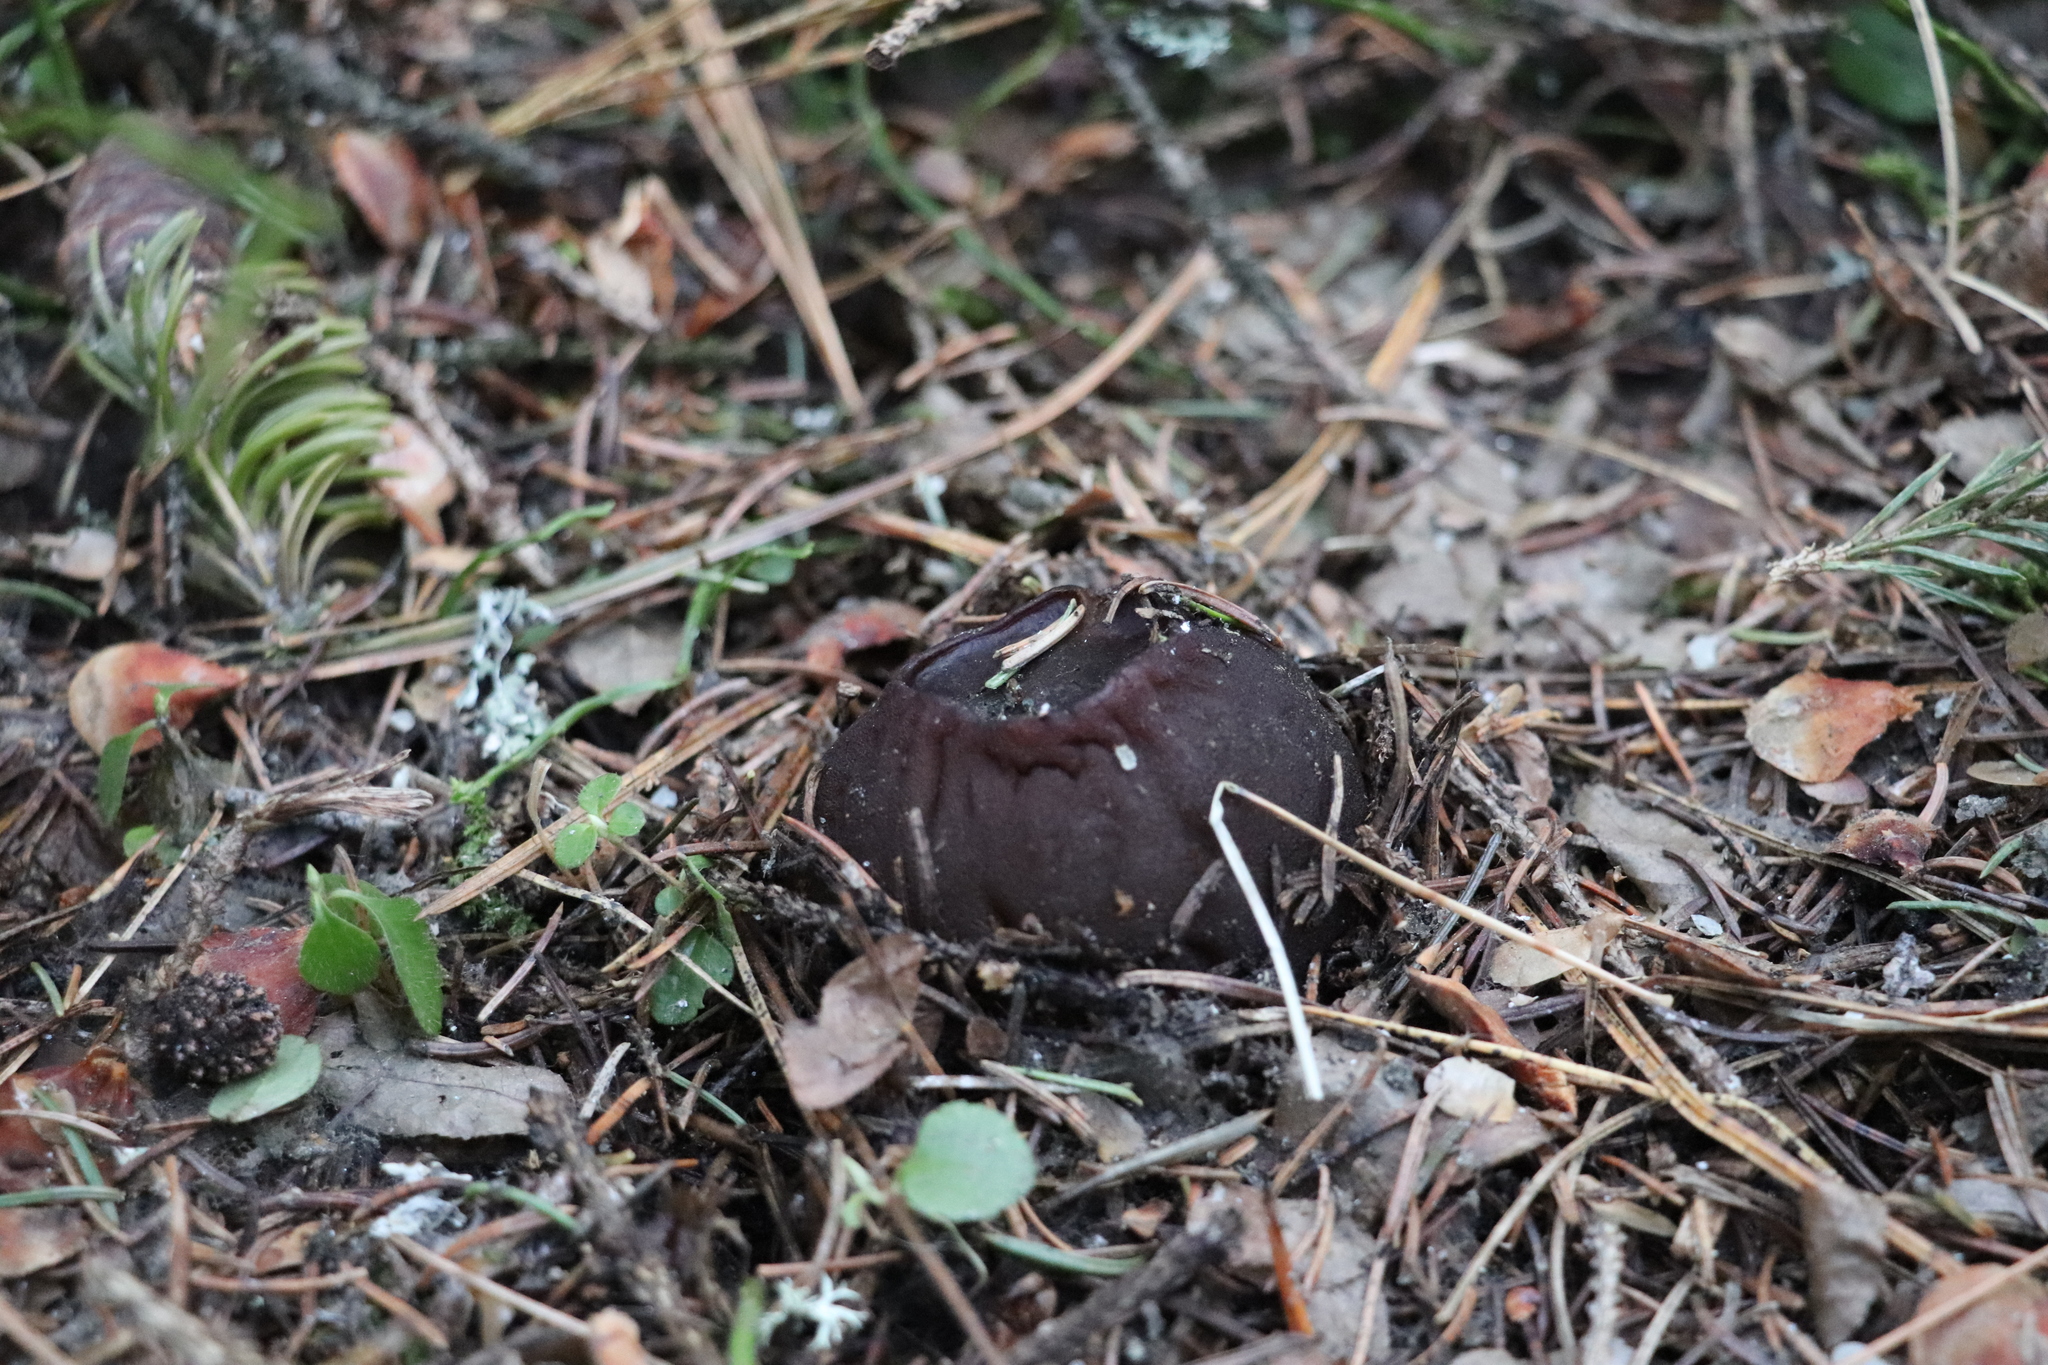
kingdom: Fungi
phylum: Ascomycota
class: Pezizomycetes
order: Pezizales
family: Sarcosomataceae
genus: Sarcosoma
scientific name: Sarcosoma globosum
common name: Charred-pancake cup
